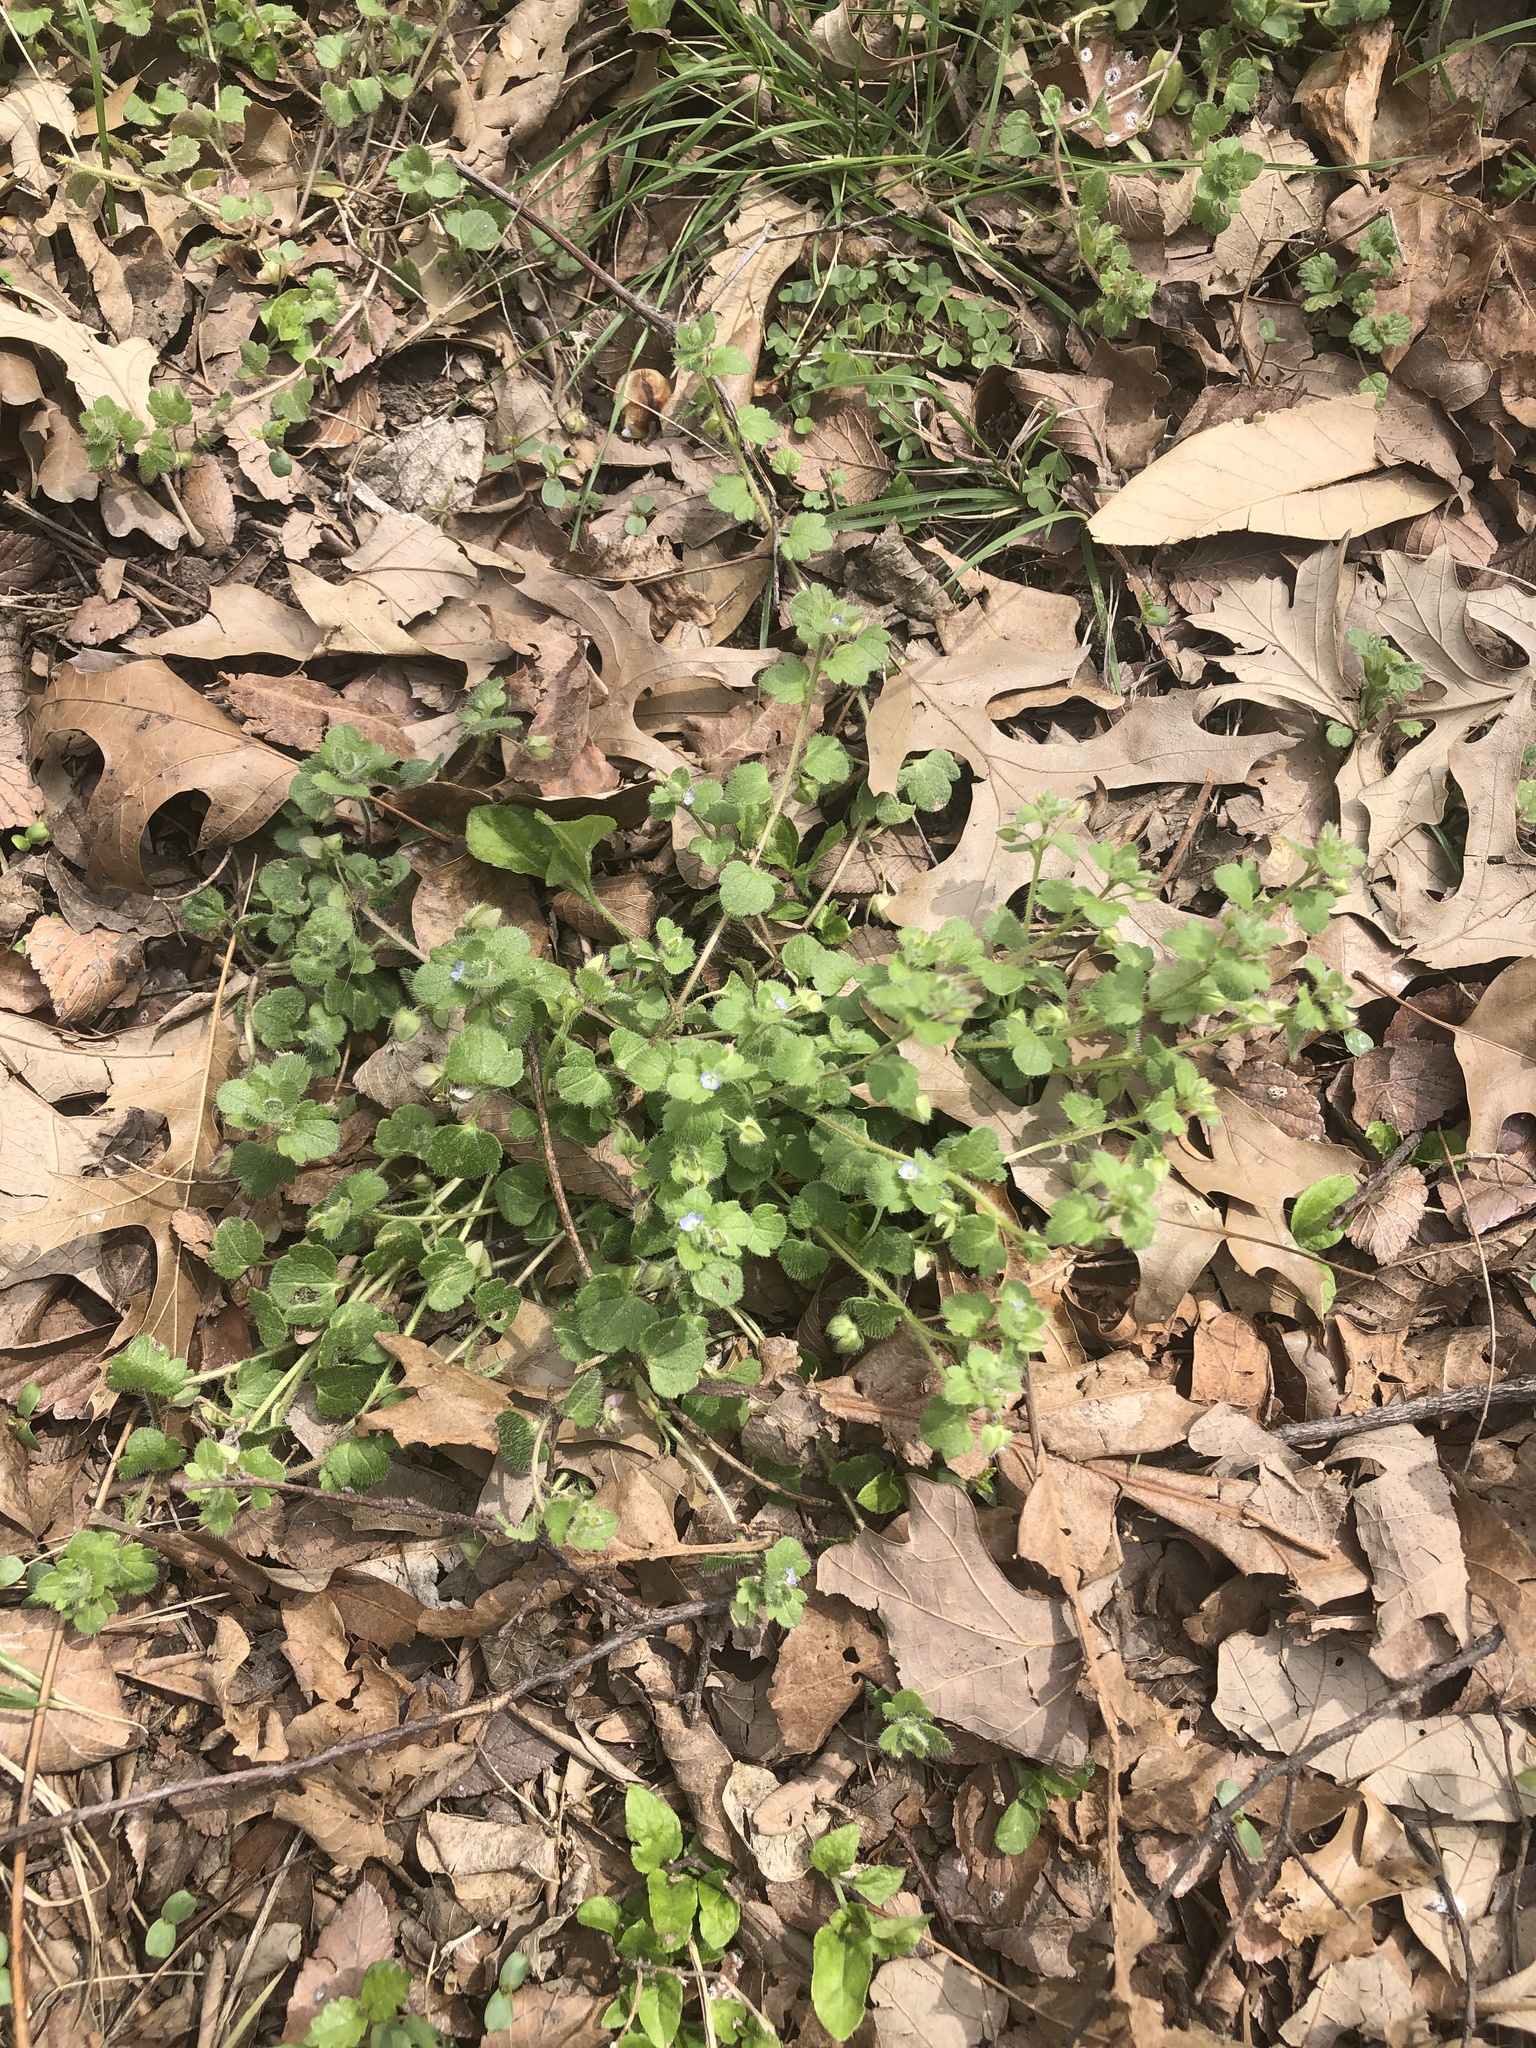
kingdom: Plantae
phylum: Tracheophyta
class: Magnoliopsida
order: Lamiales
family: Plantaginaceae
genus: Veronica
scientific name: Veronica hederifolia
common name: Ivy-leaved speedwell
